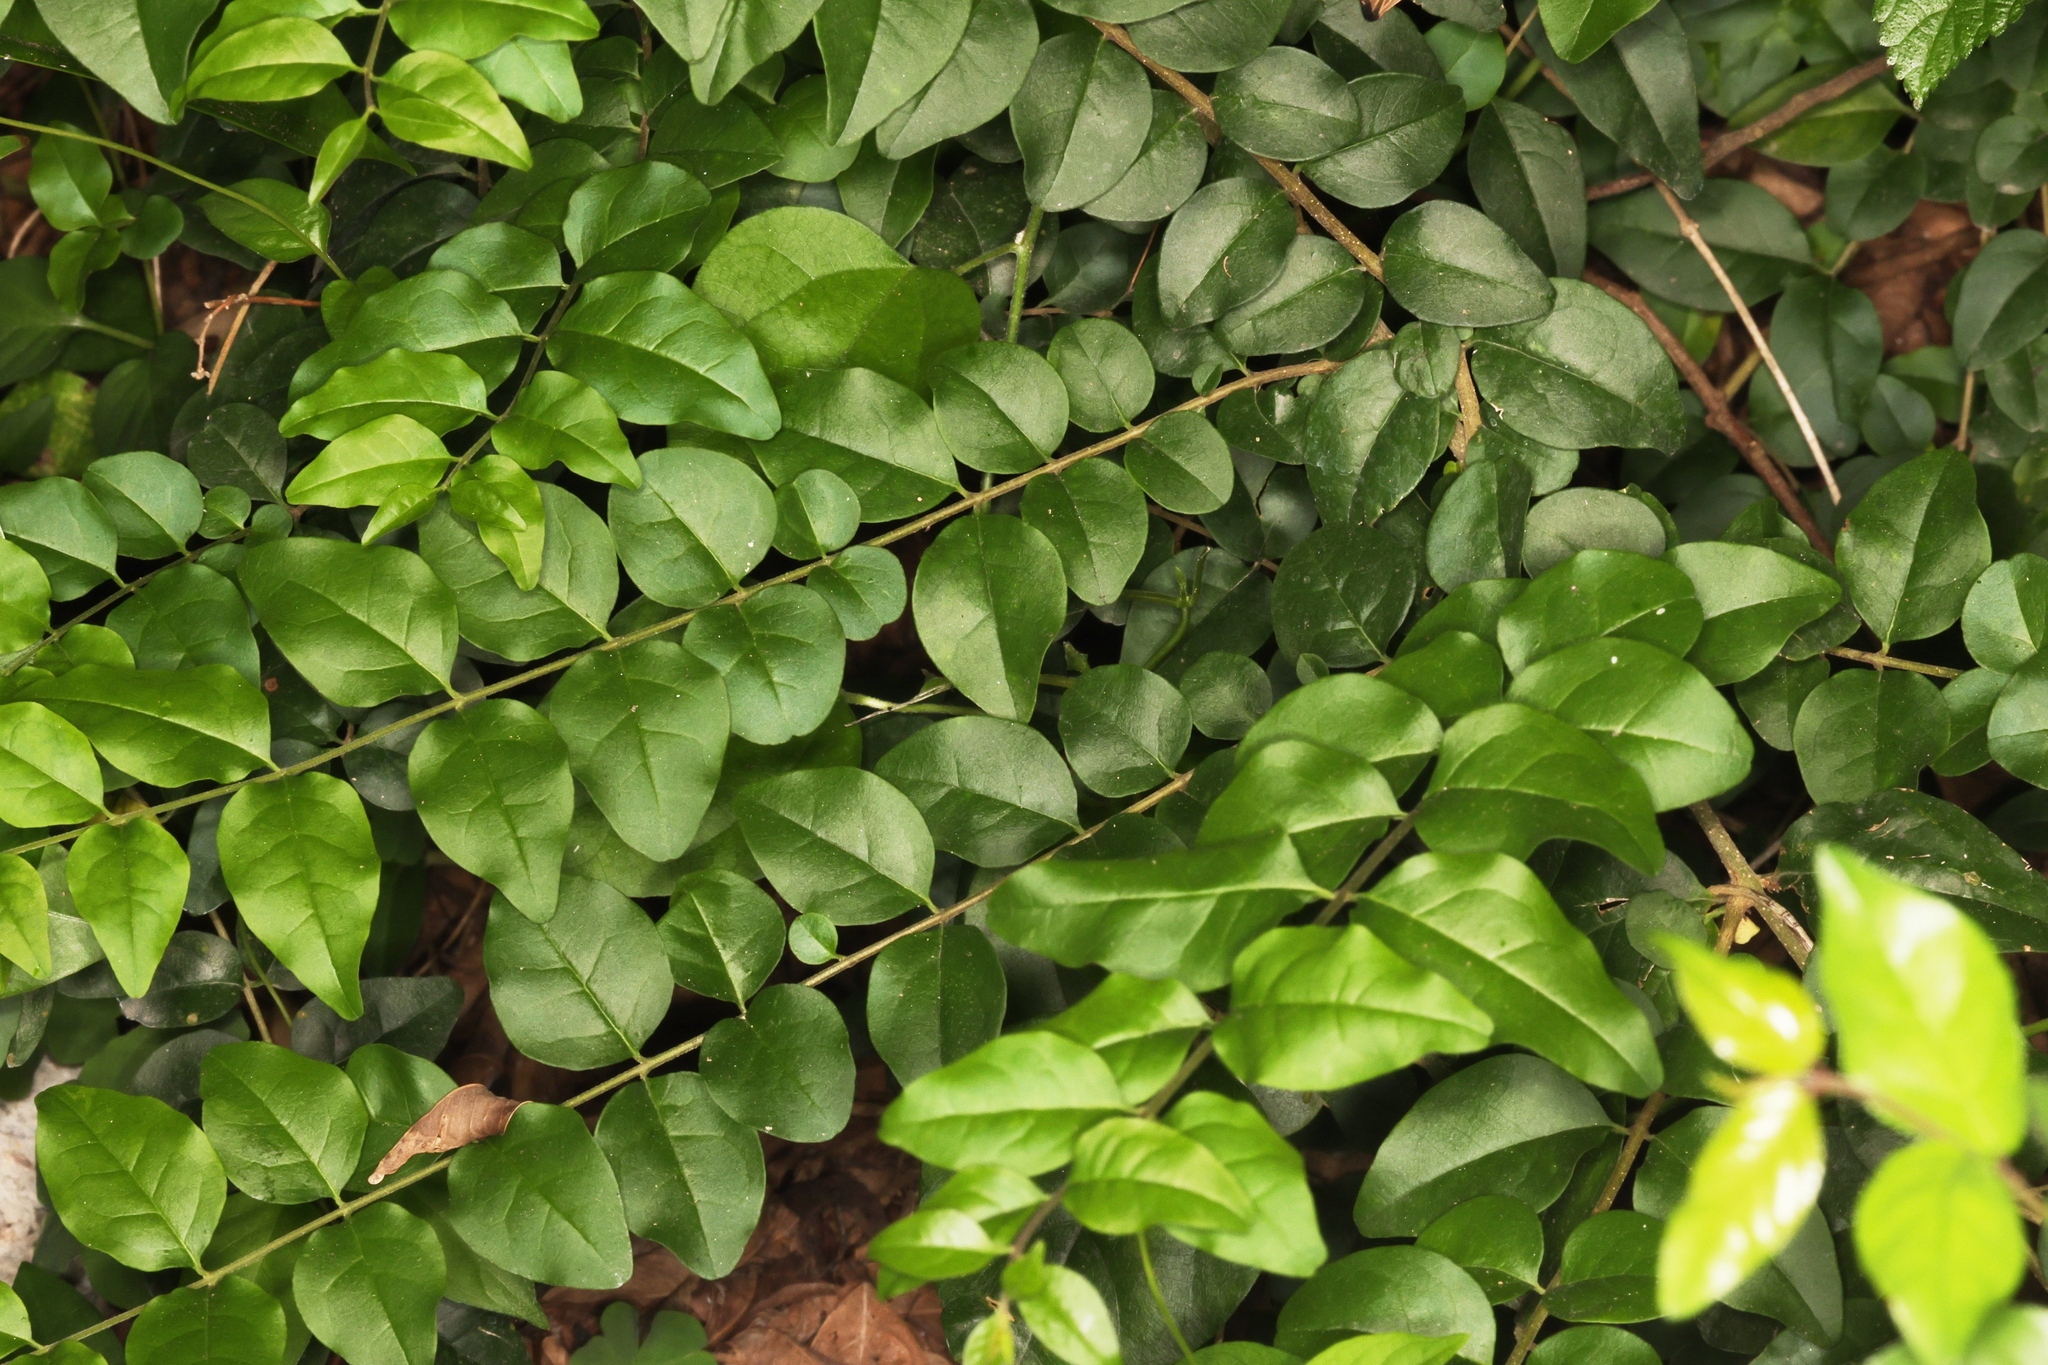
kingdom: Plantae
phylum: Tracheophyta
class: Magnoliopsida
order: Lamiales
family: Oleaceae
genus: Ligustrum
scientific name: Ligustrum sinense
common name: Chinese privet
